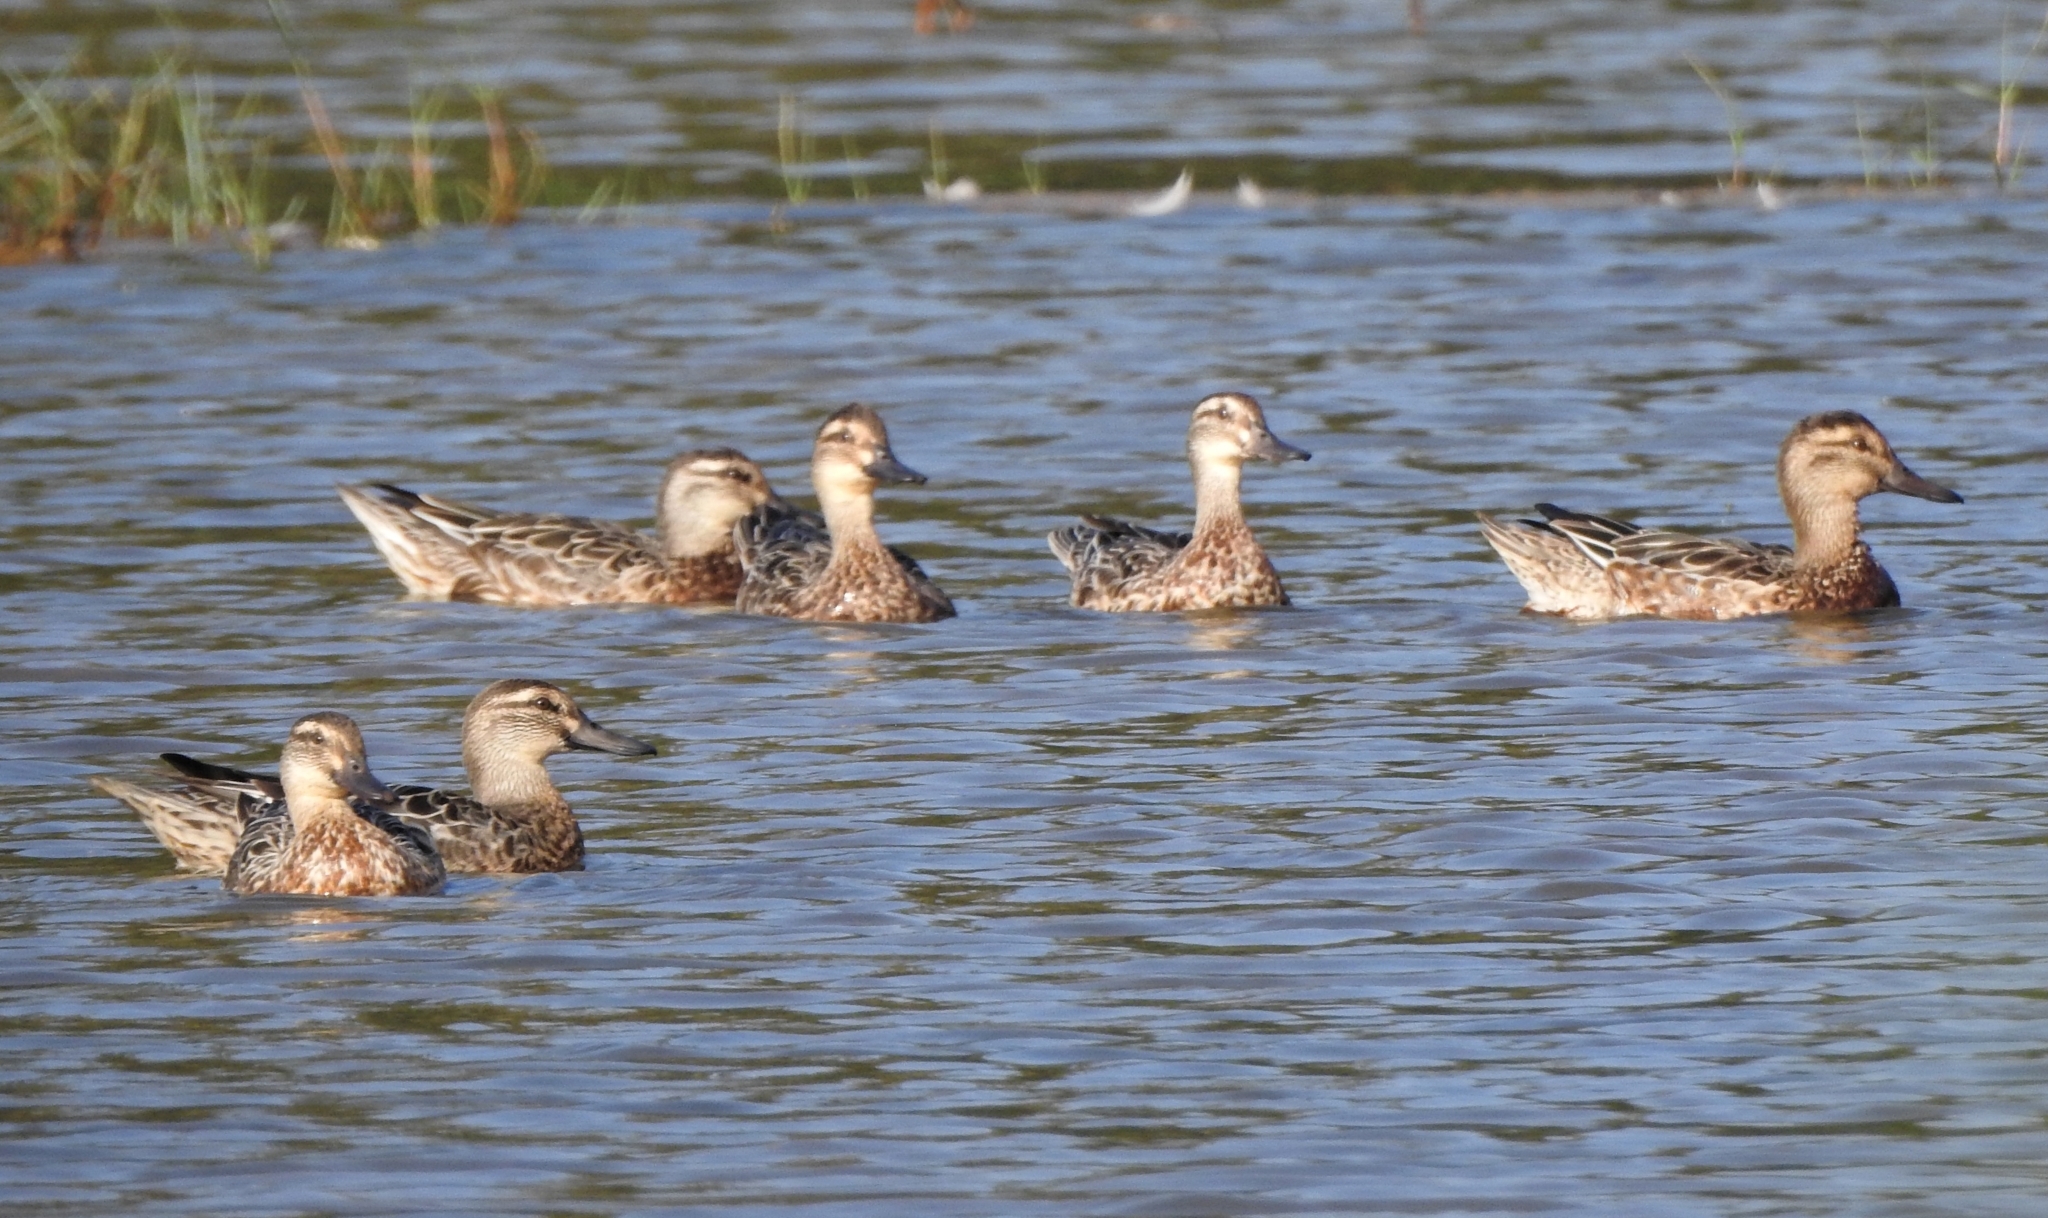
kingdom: Animalia
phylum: Chordata
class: Aves
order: Anseriformes
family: Anatidae
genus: Spatula
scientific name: Spatula querquedula
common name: Garganey
